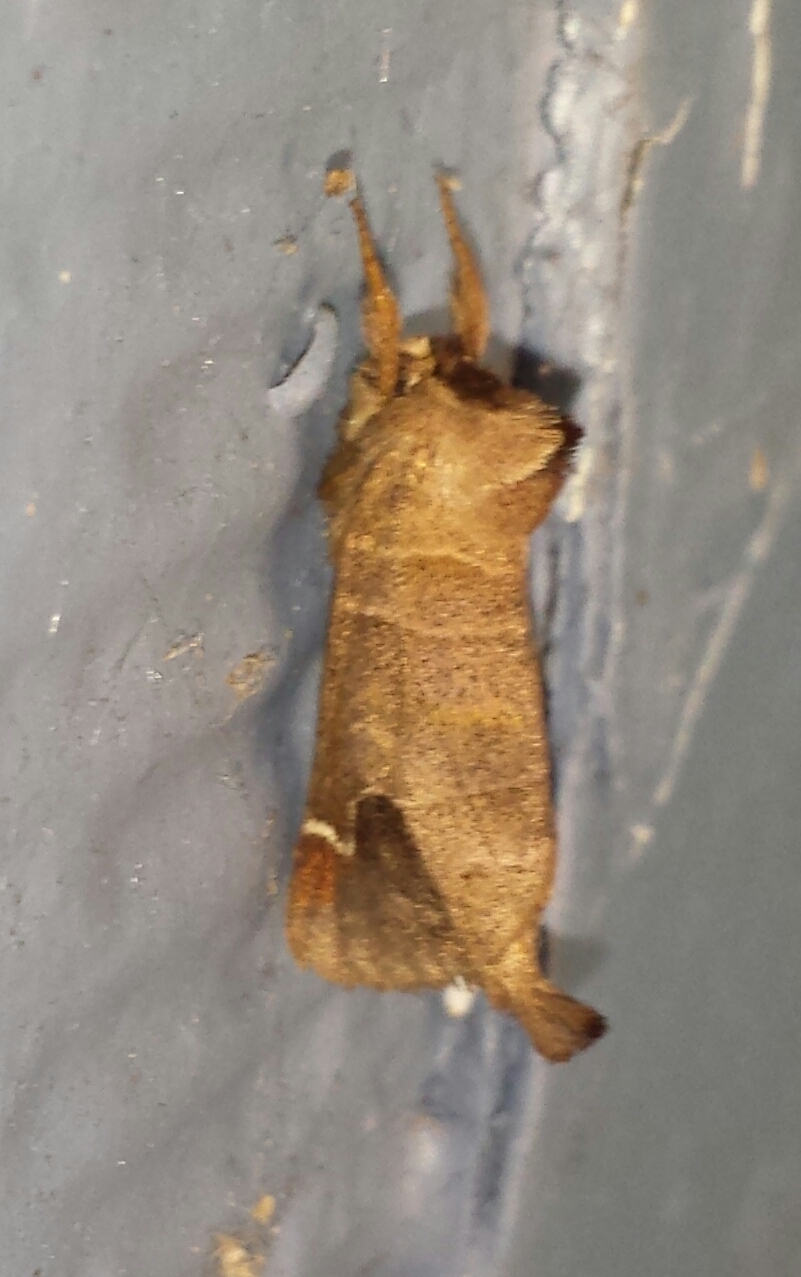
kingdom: Animalia
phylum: Arthropoda
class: Insecta
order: Lepidoptera
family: Notodontidae
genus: Clostera
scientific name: Clostera albosigma
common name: Sigmoid prominent
